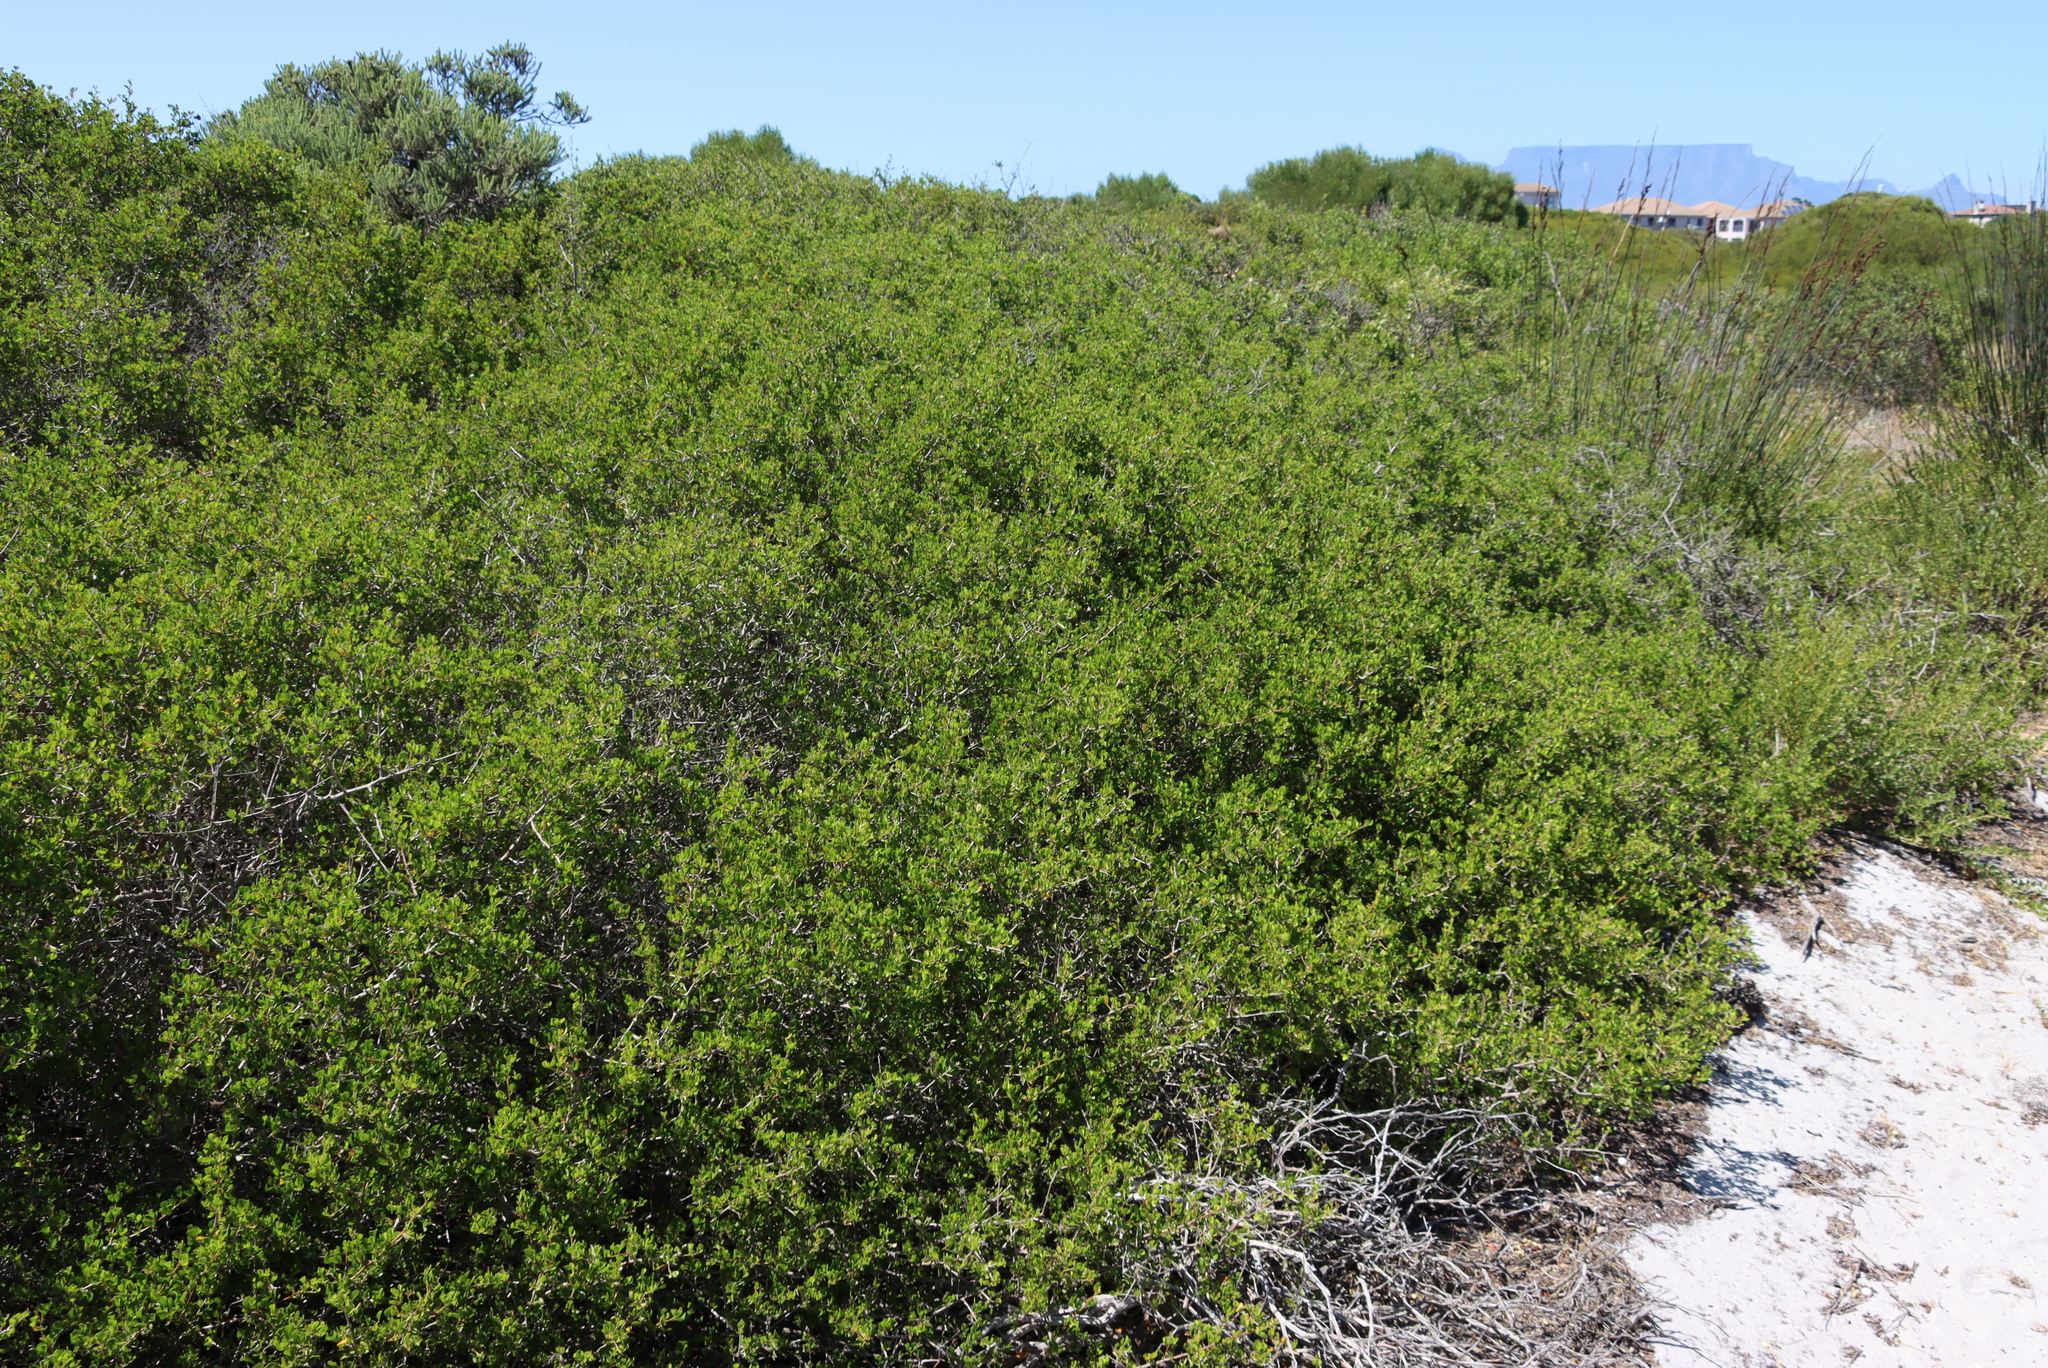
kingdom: Plantae
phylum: Tracheophyta
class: Magnoliopsida
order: Sapindales
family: Anacardiaceae
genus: Searsia
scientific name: Searsia glauca
